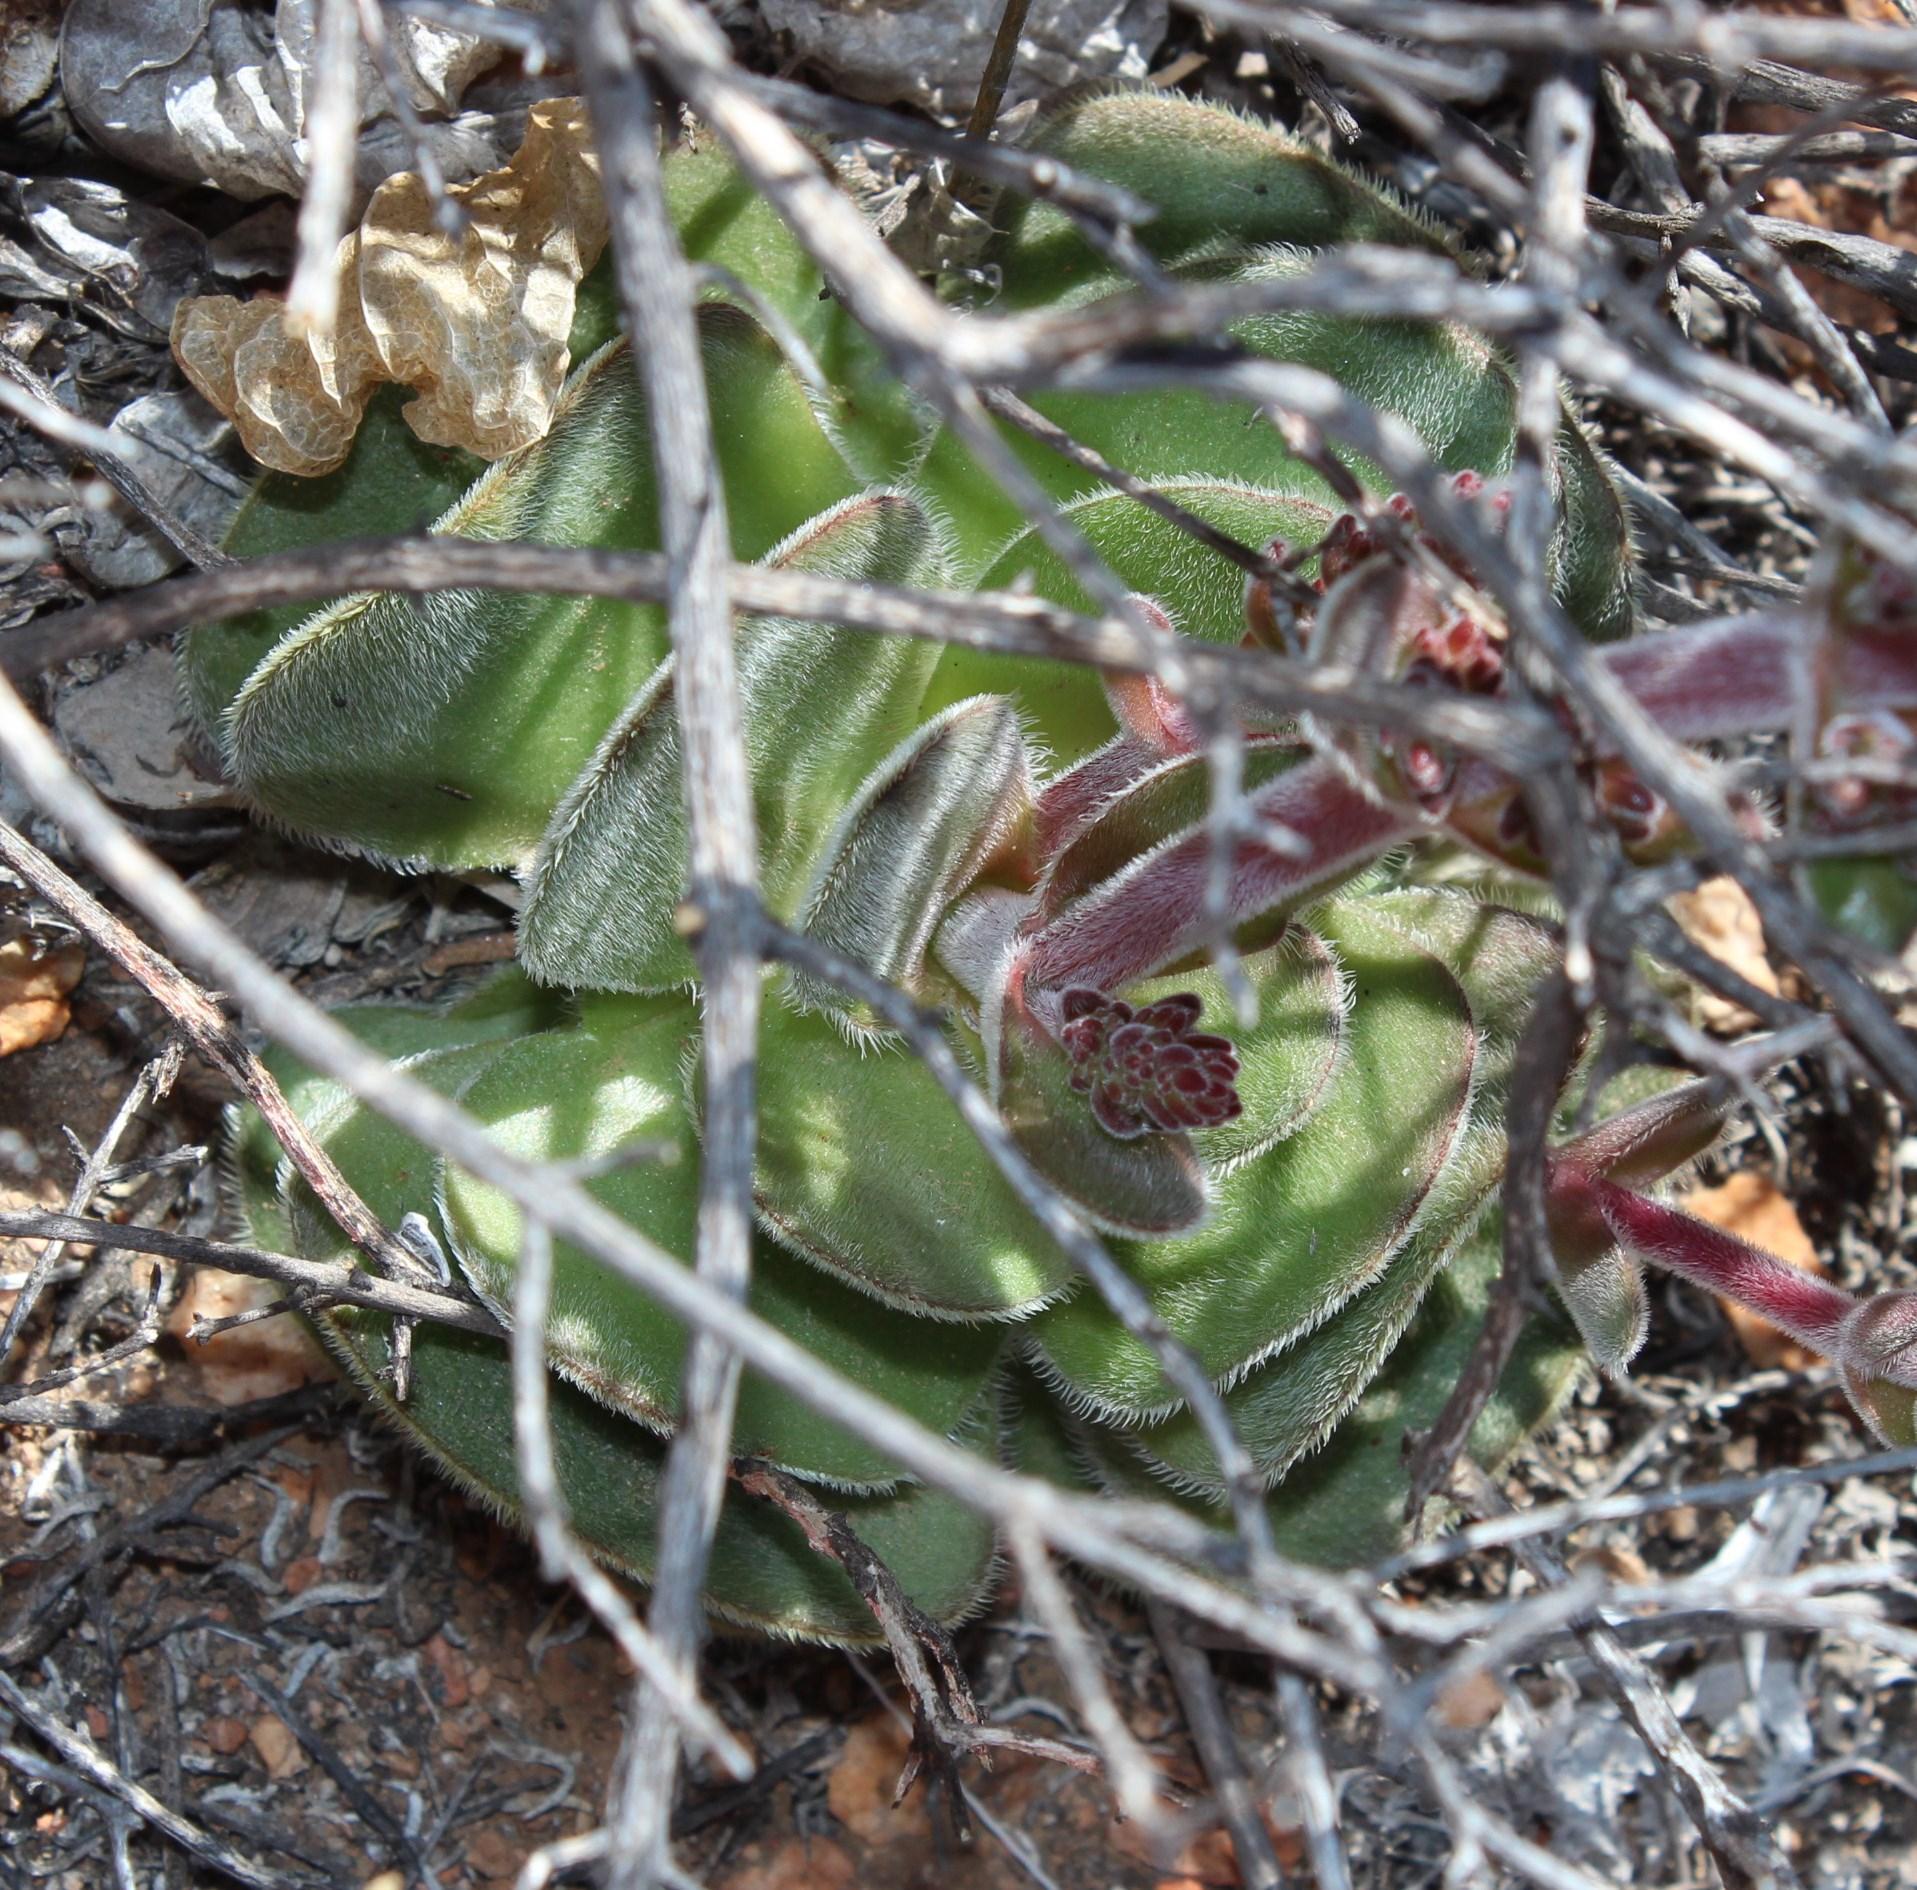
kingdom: Plantae
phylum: Tracheophyta
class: Magnoliopsida
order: Saxifragales
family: Crassulaceae
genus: Crassula
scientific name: Crassula tomentosa
